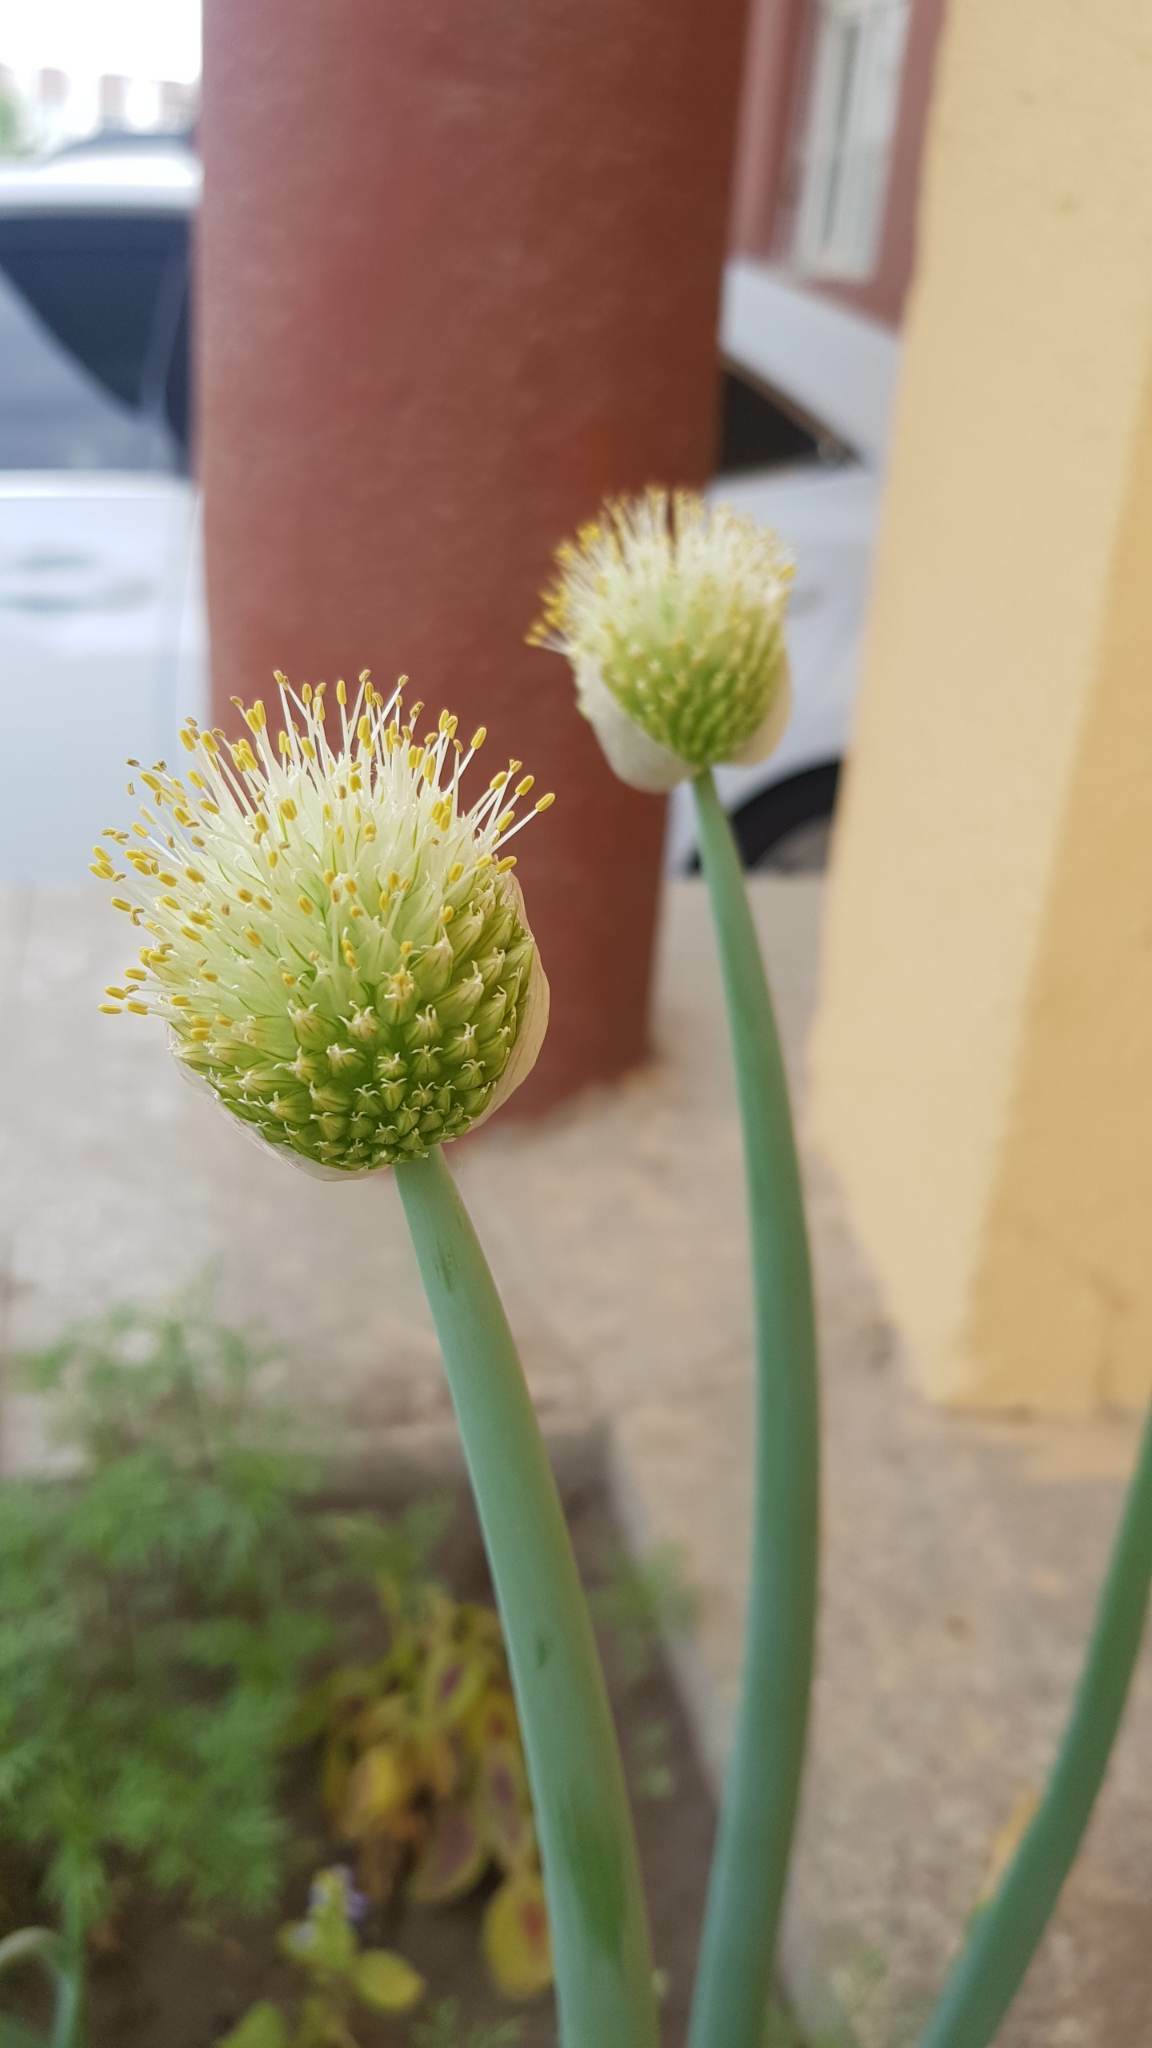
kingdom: Plantae
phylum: Tracheophyta
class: Liliopsida
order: Asparagales
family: Amaryllidaceae
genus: Allium
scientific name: Allium altaicum
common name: Altai onion
